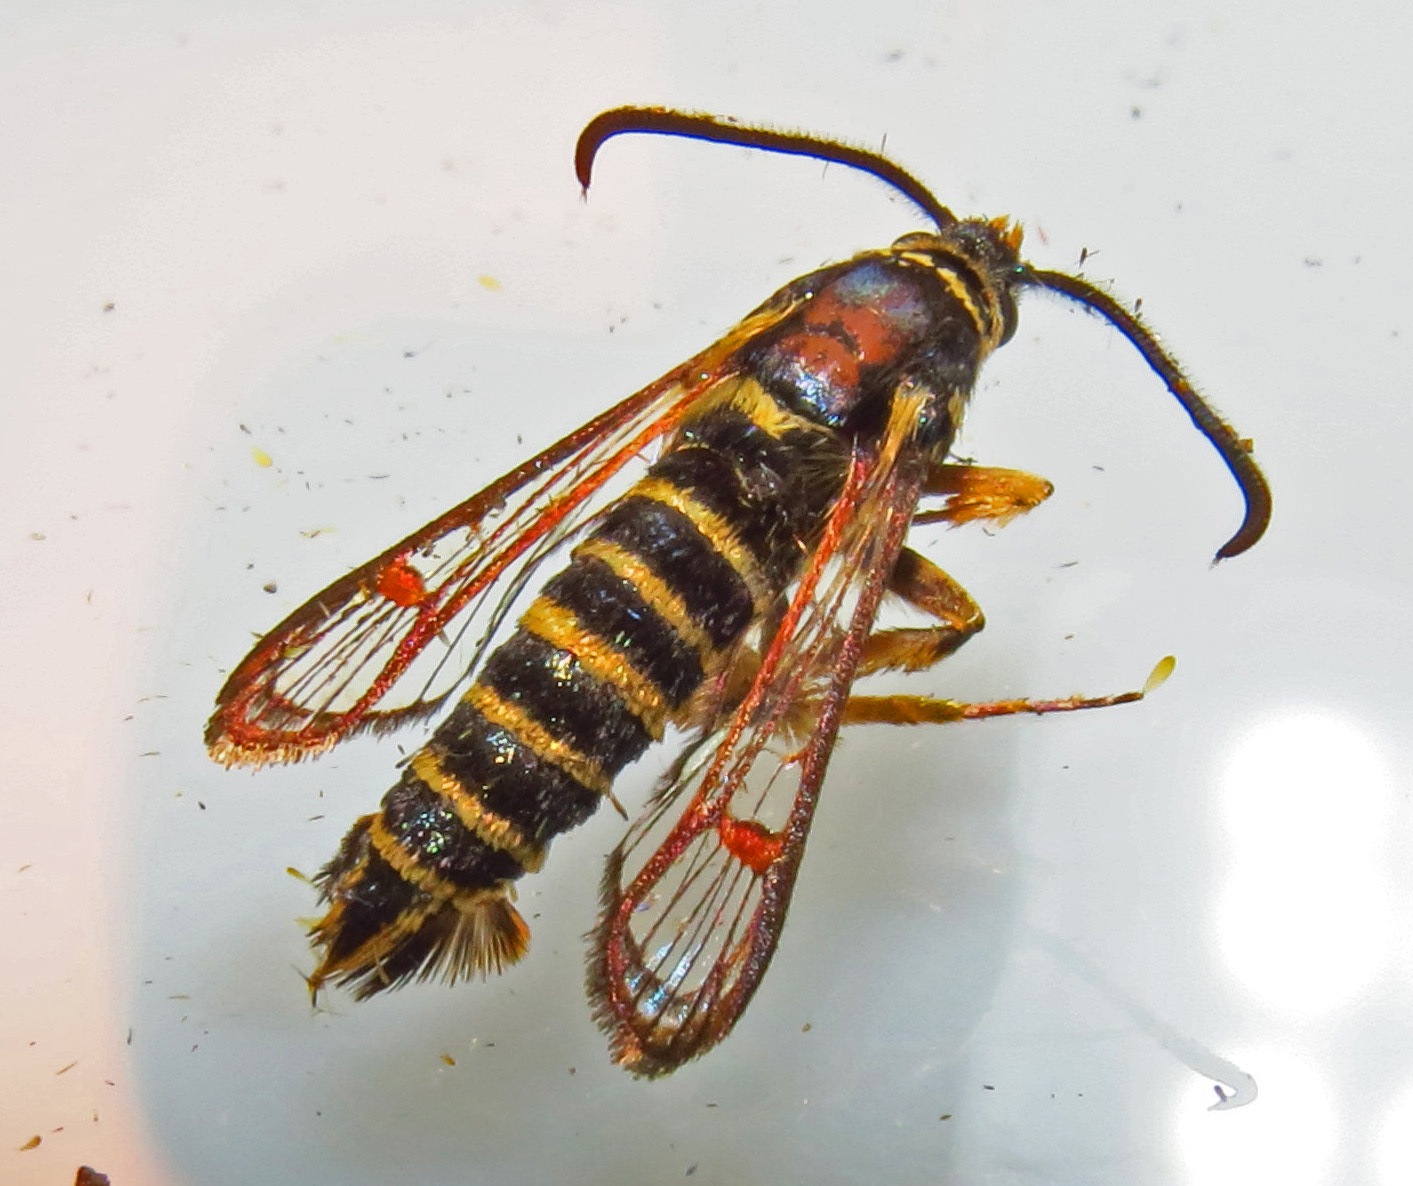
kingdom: Animalia
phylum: Arthropoda
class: Insecta
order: Lepidoptera
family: Sesiidae
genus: Synanthedon
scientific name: Synanthedon rileyana
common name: Riley's clearwing moth
